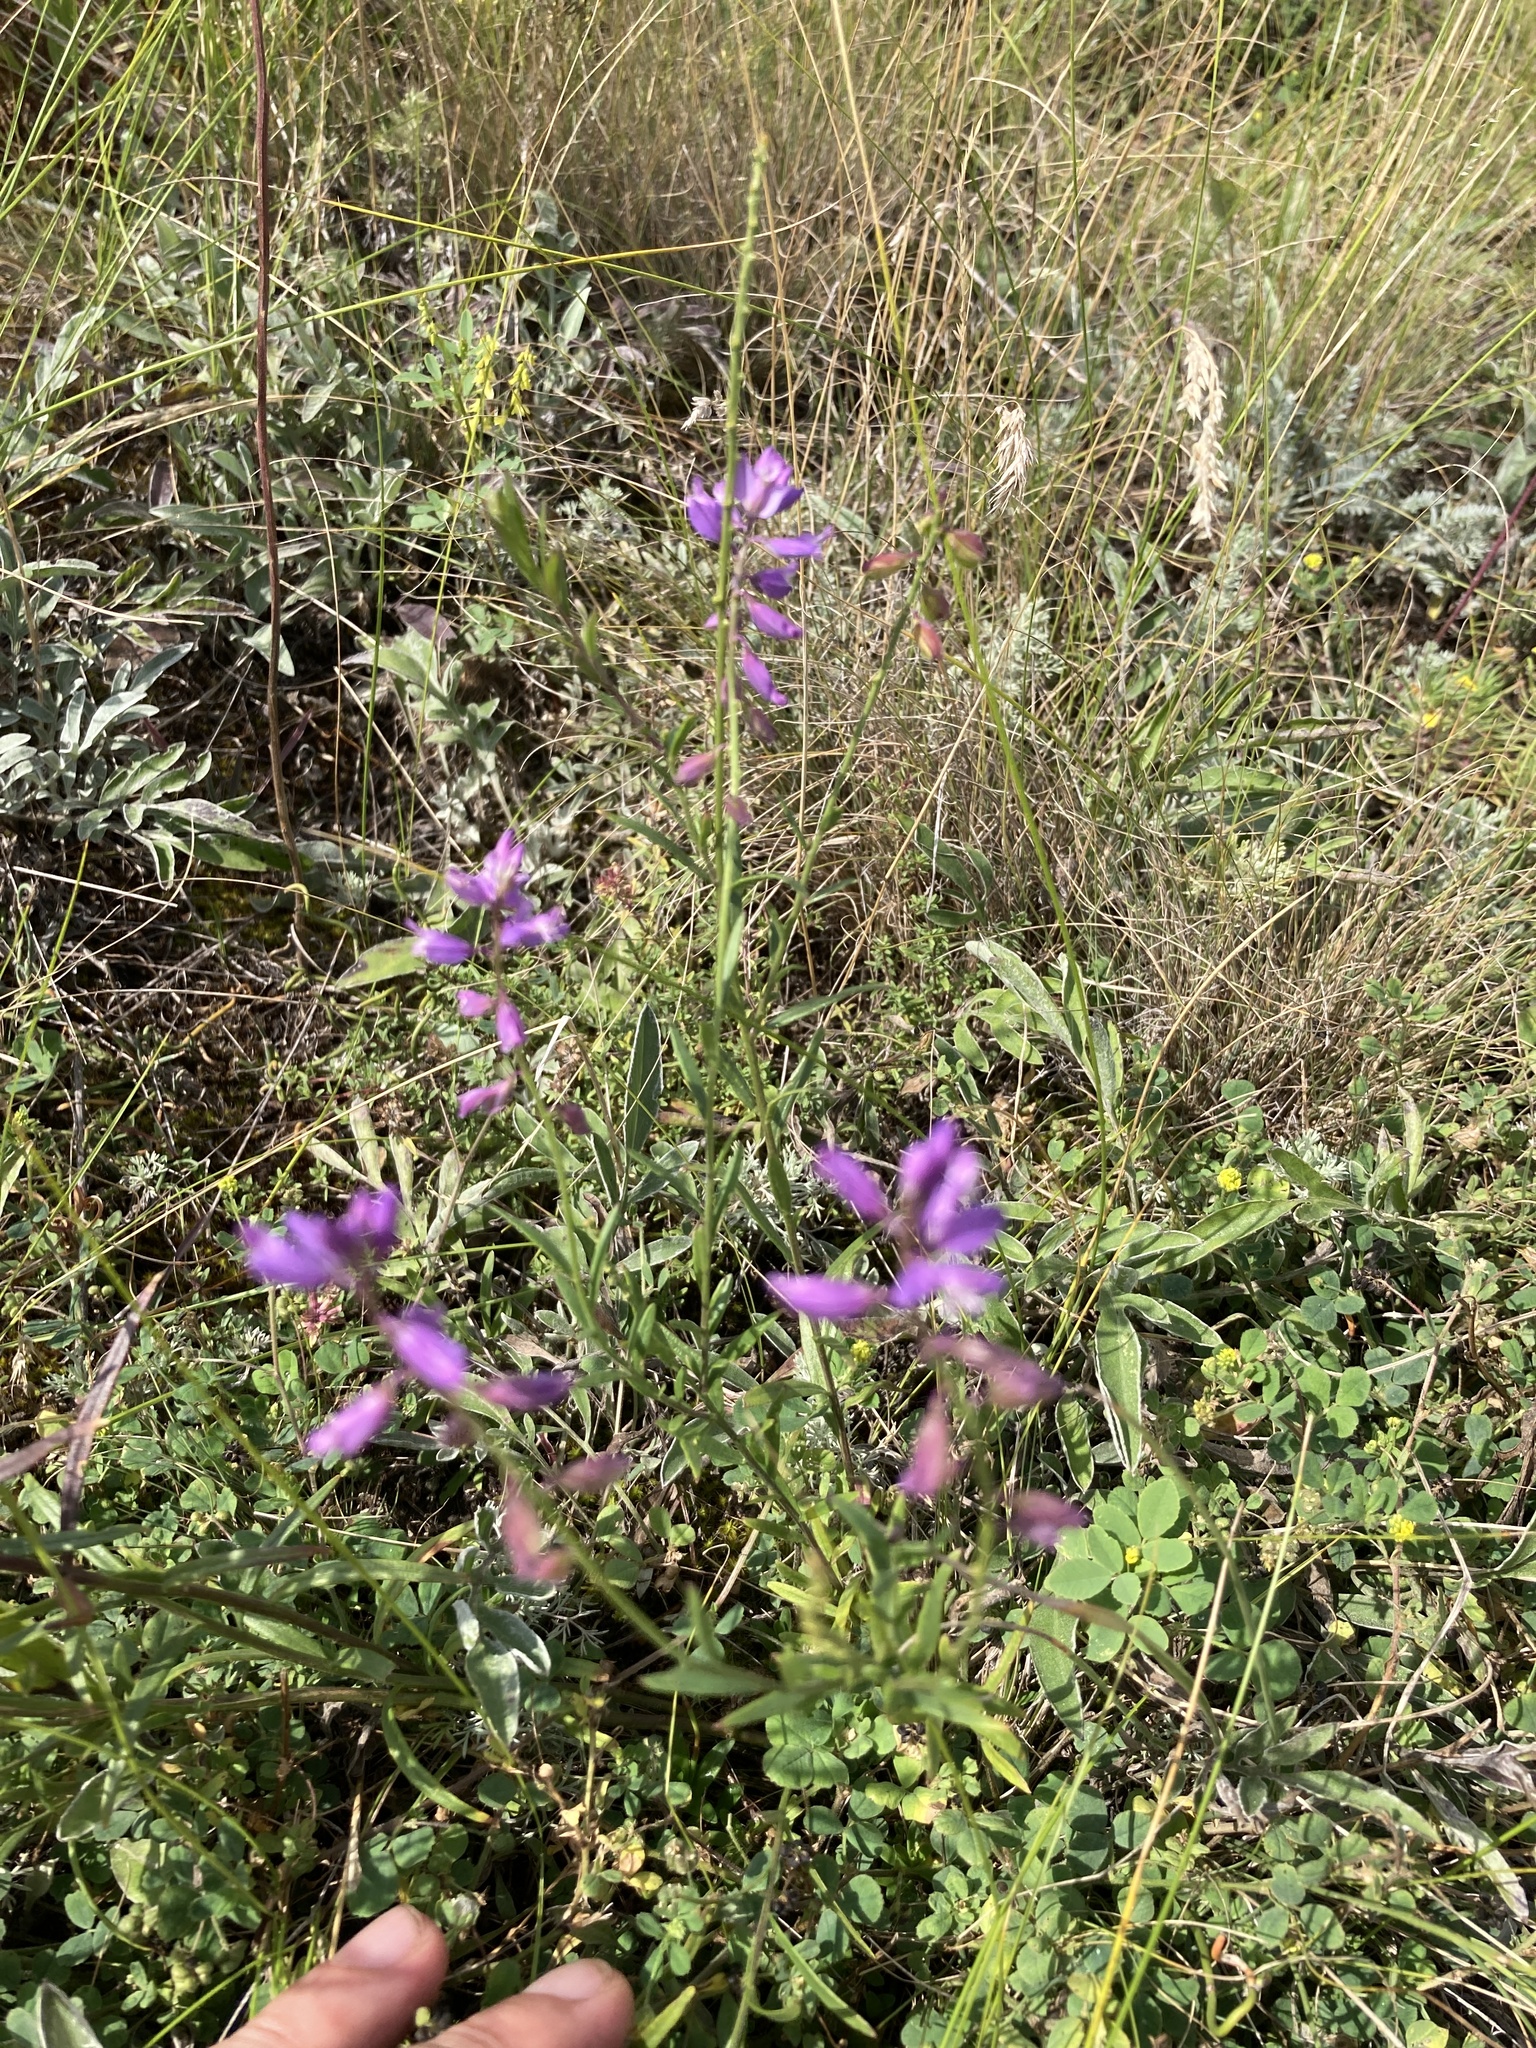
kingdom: Plantae
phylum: Tracheophyta
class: Magnoliopsida
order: Fabales
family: Polygalaceae
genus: Polygala
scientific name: Polygala nicaeensis
